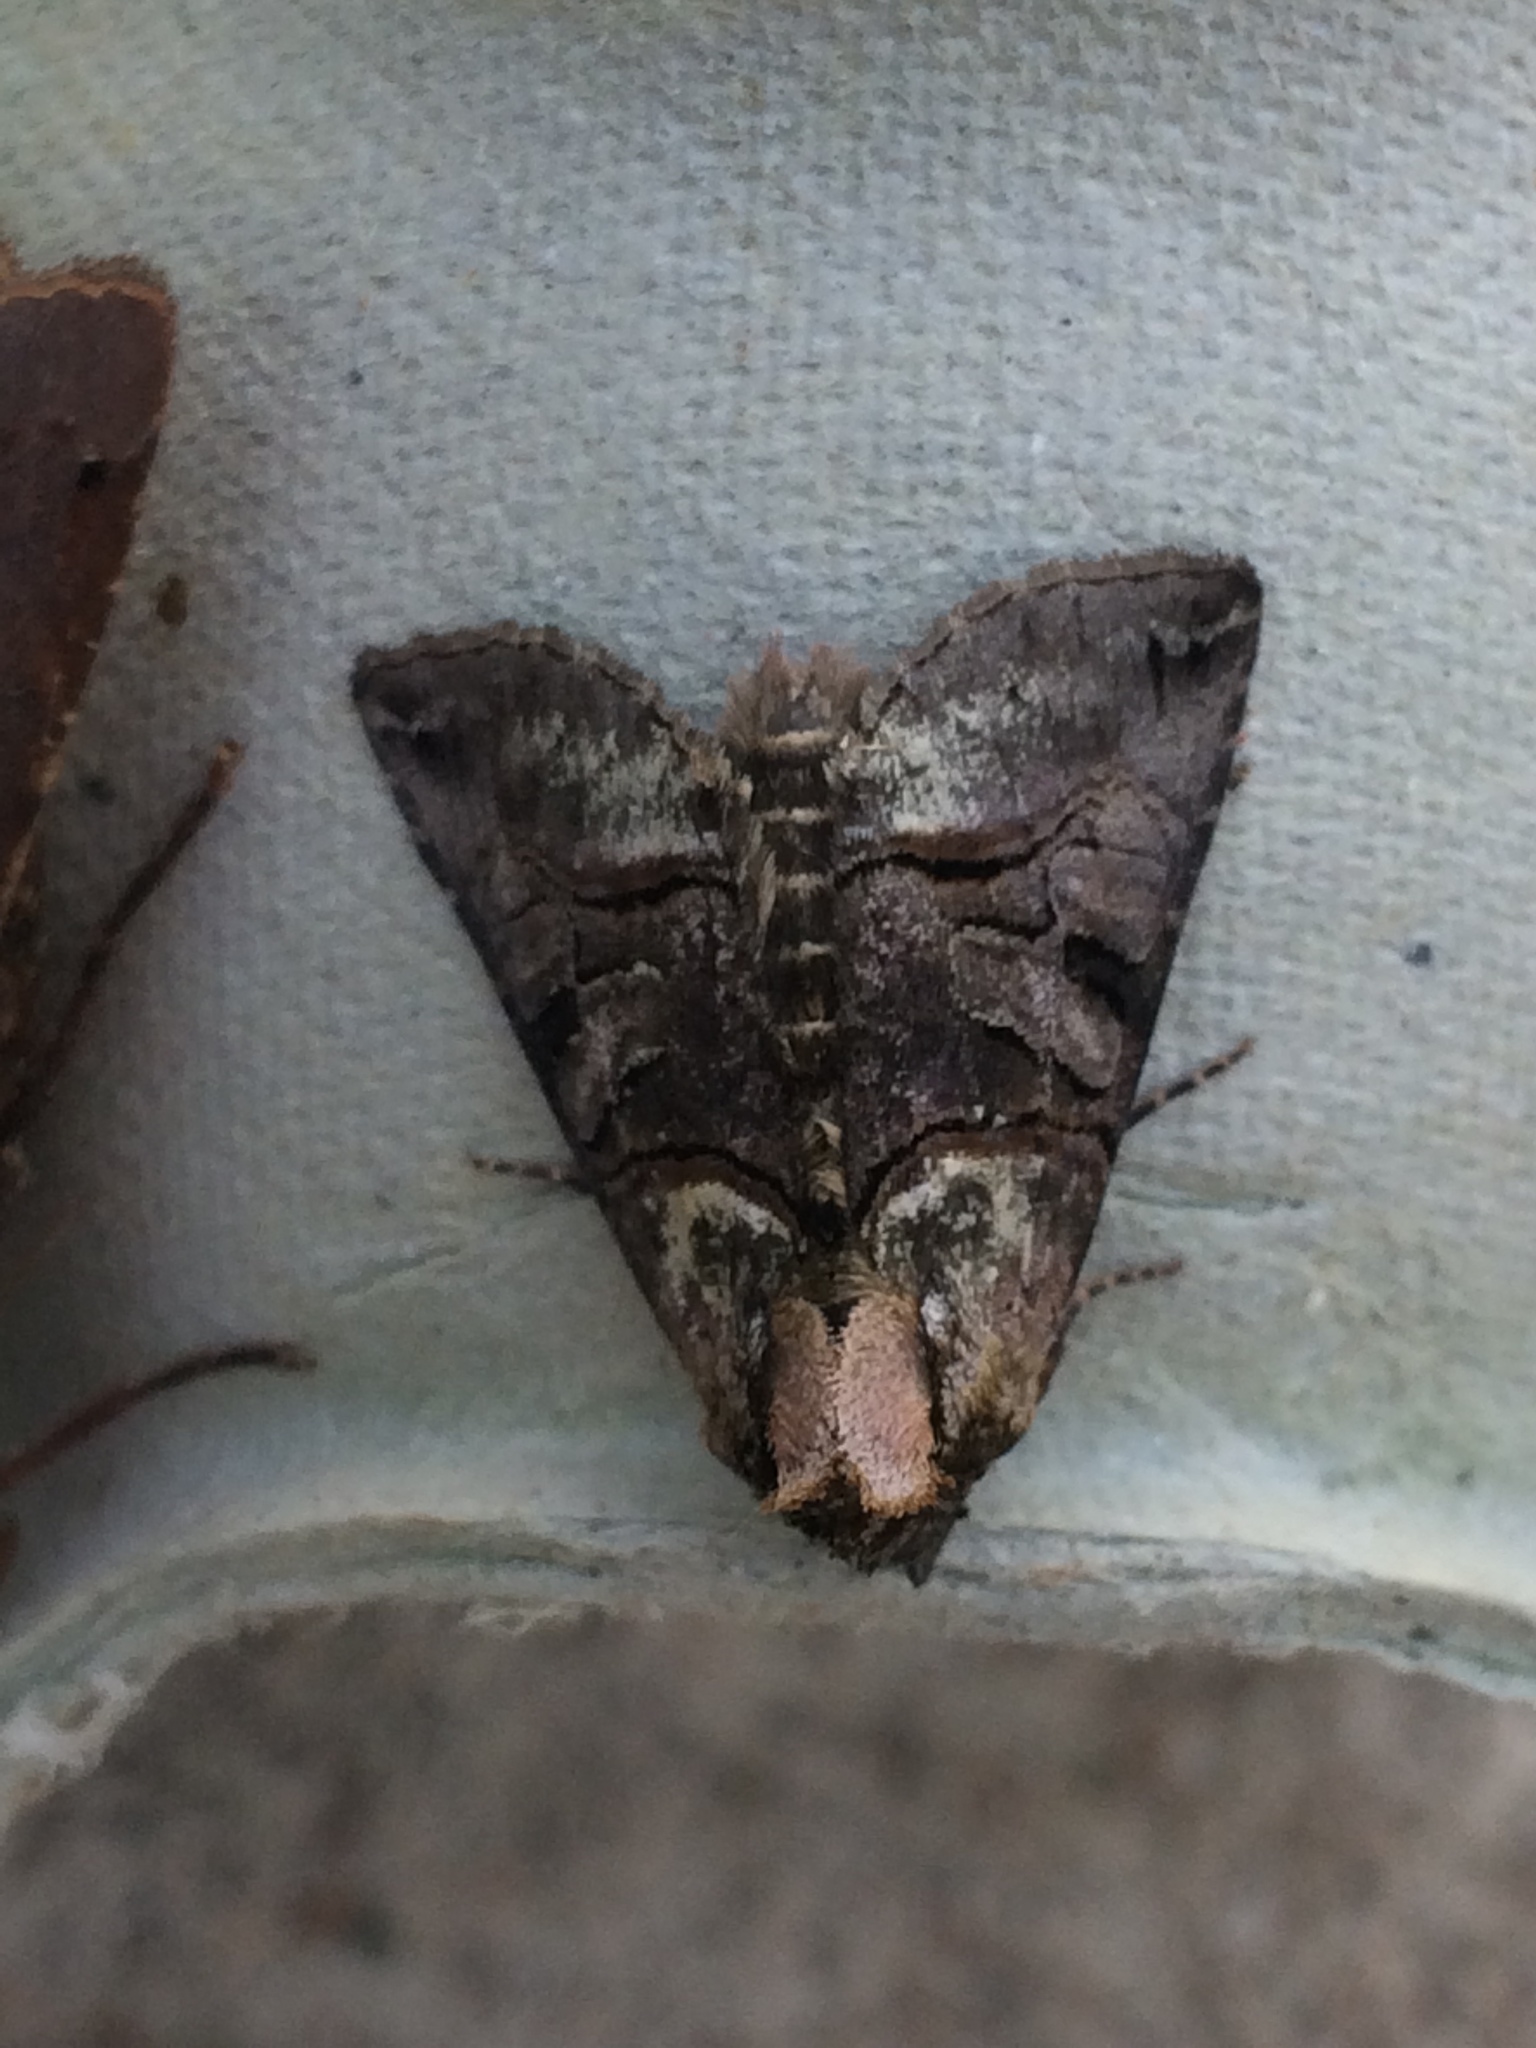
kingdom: Animalia
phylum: Arthropoda
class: Insecta
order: Lepidoptera
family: Noctuidae
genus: Abrostola
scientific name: Abrostola tripartita
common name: Spectacle
